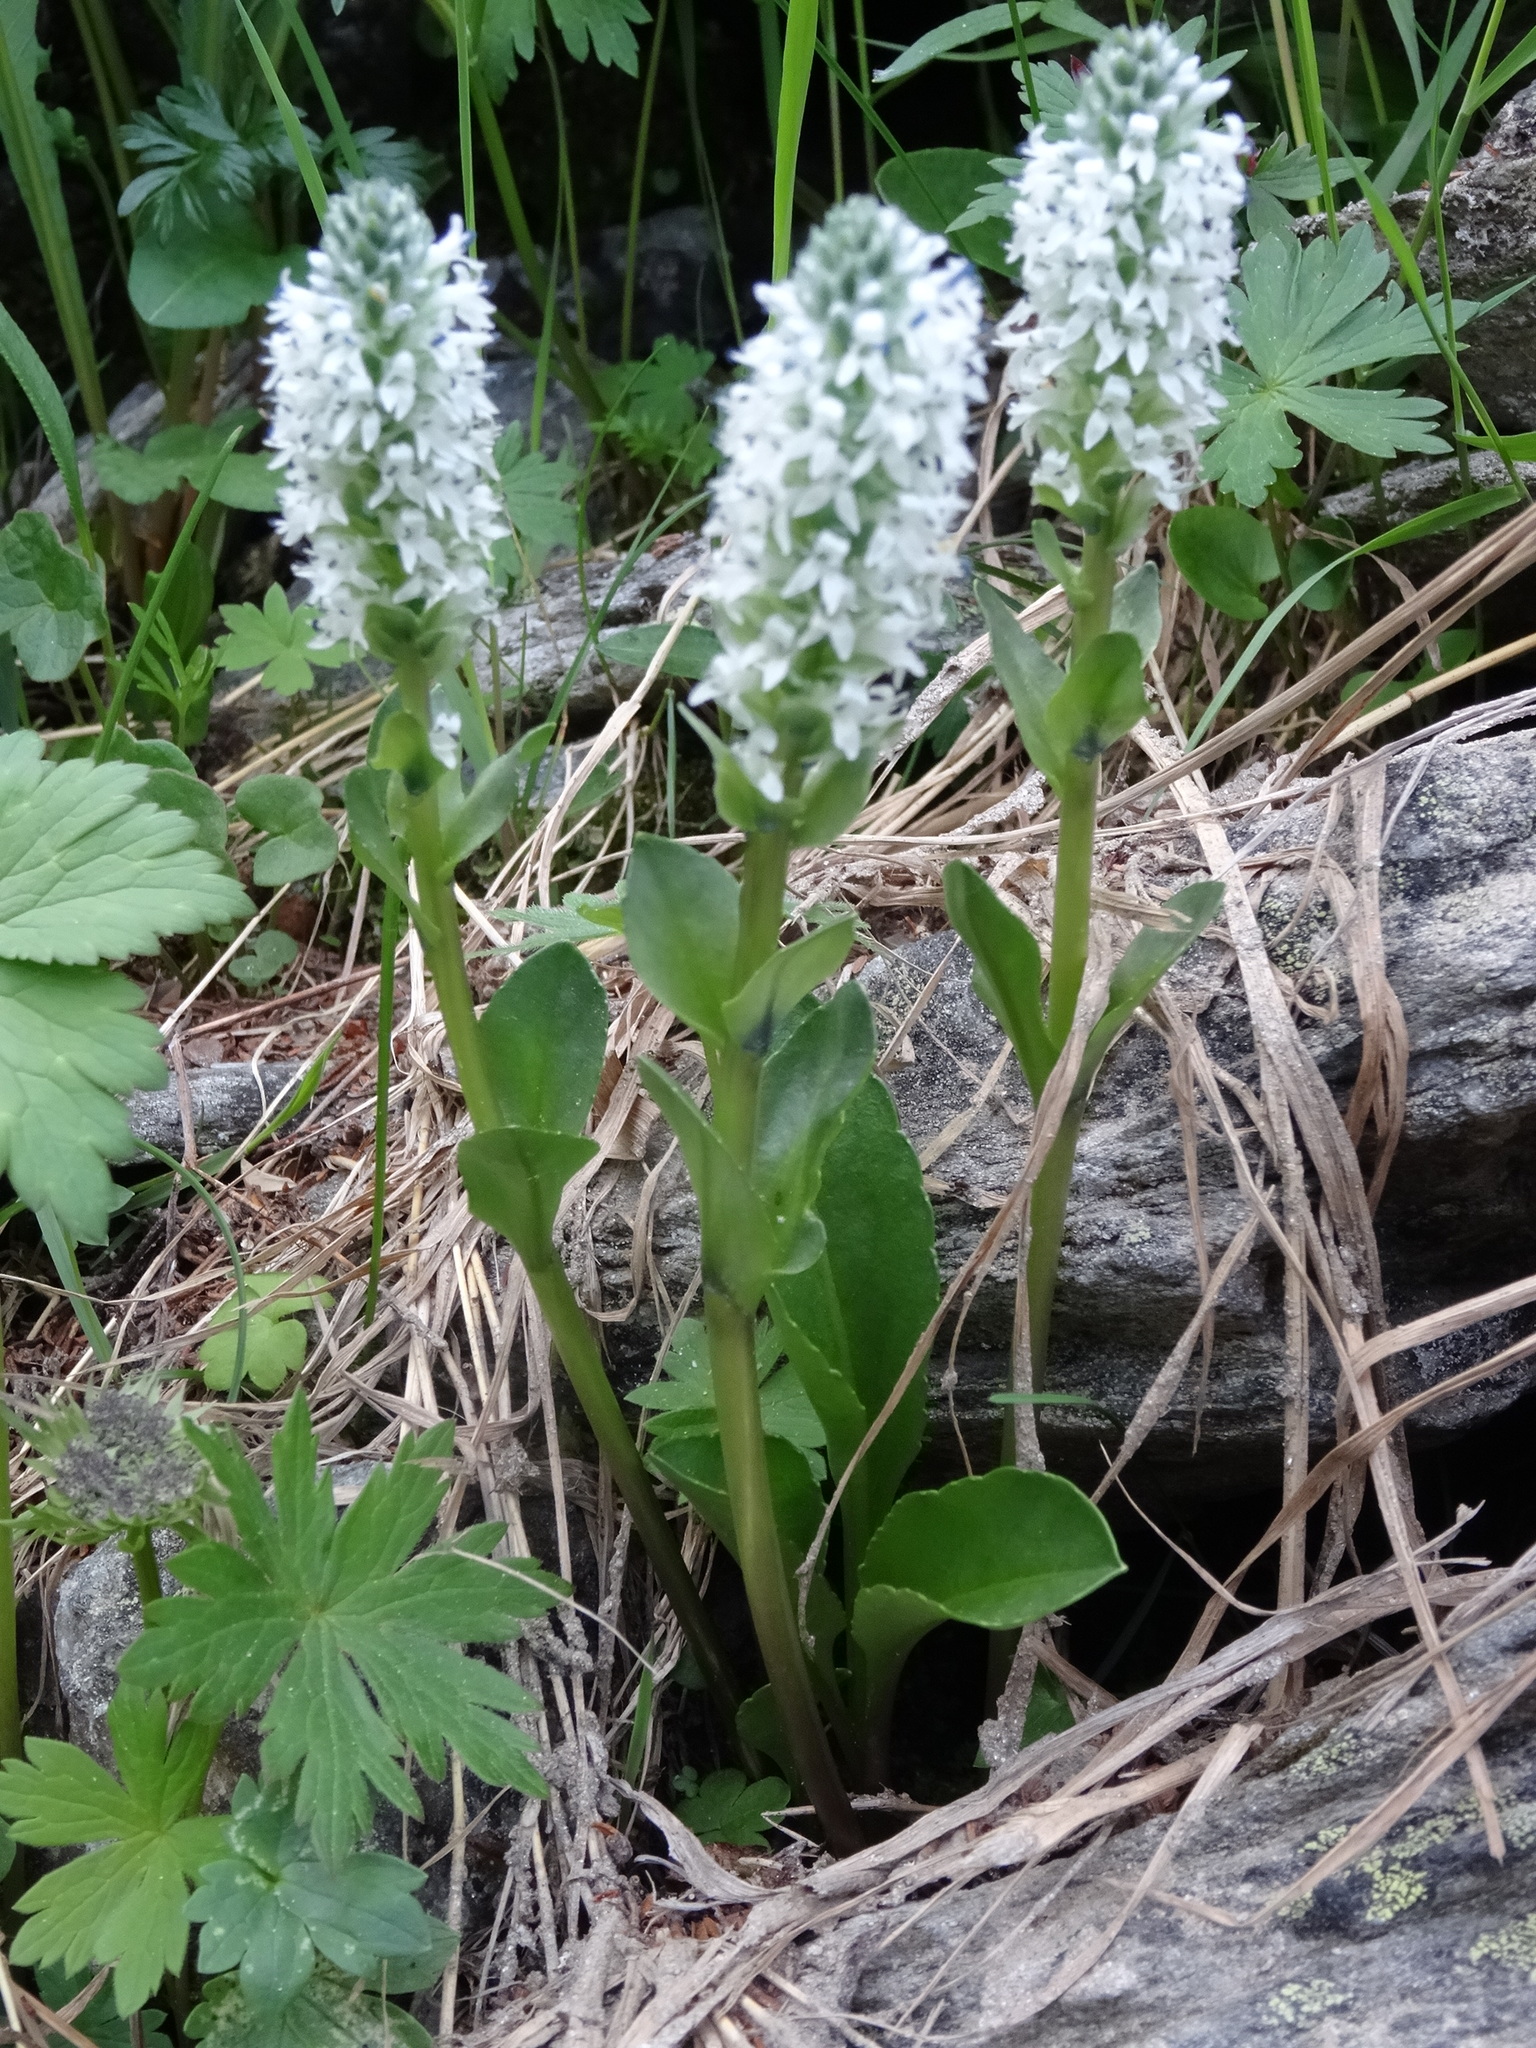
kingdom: Plantae
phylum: Tracheophyta
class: Magnoliopsida
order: Lamiales
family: Plantaginaceae
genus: Lagotis
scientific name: Lagotis uralensis
